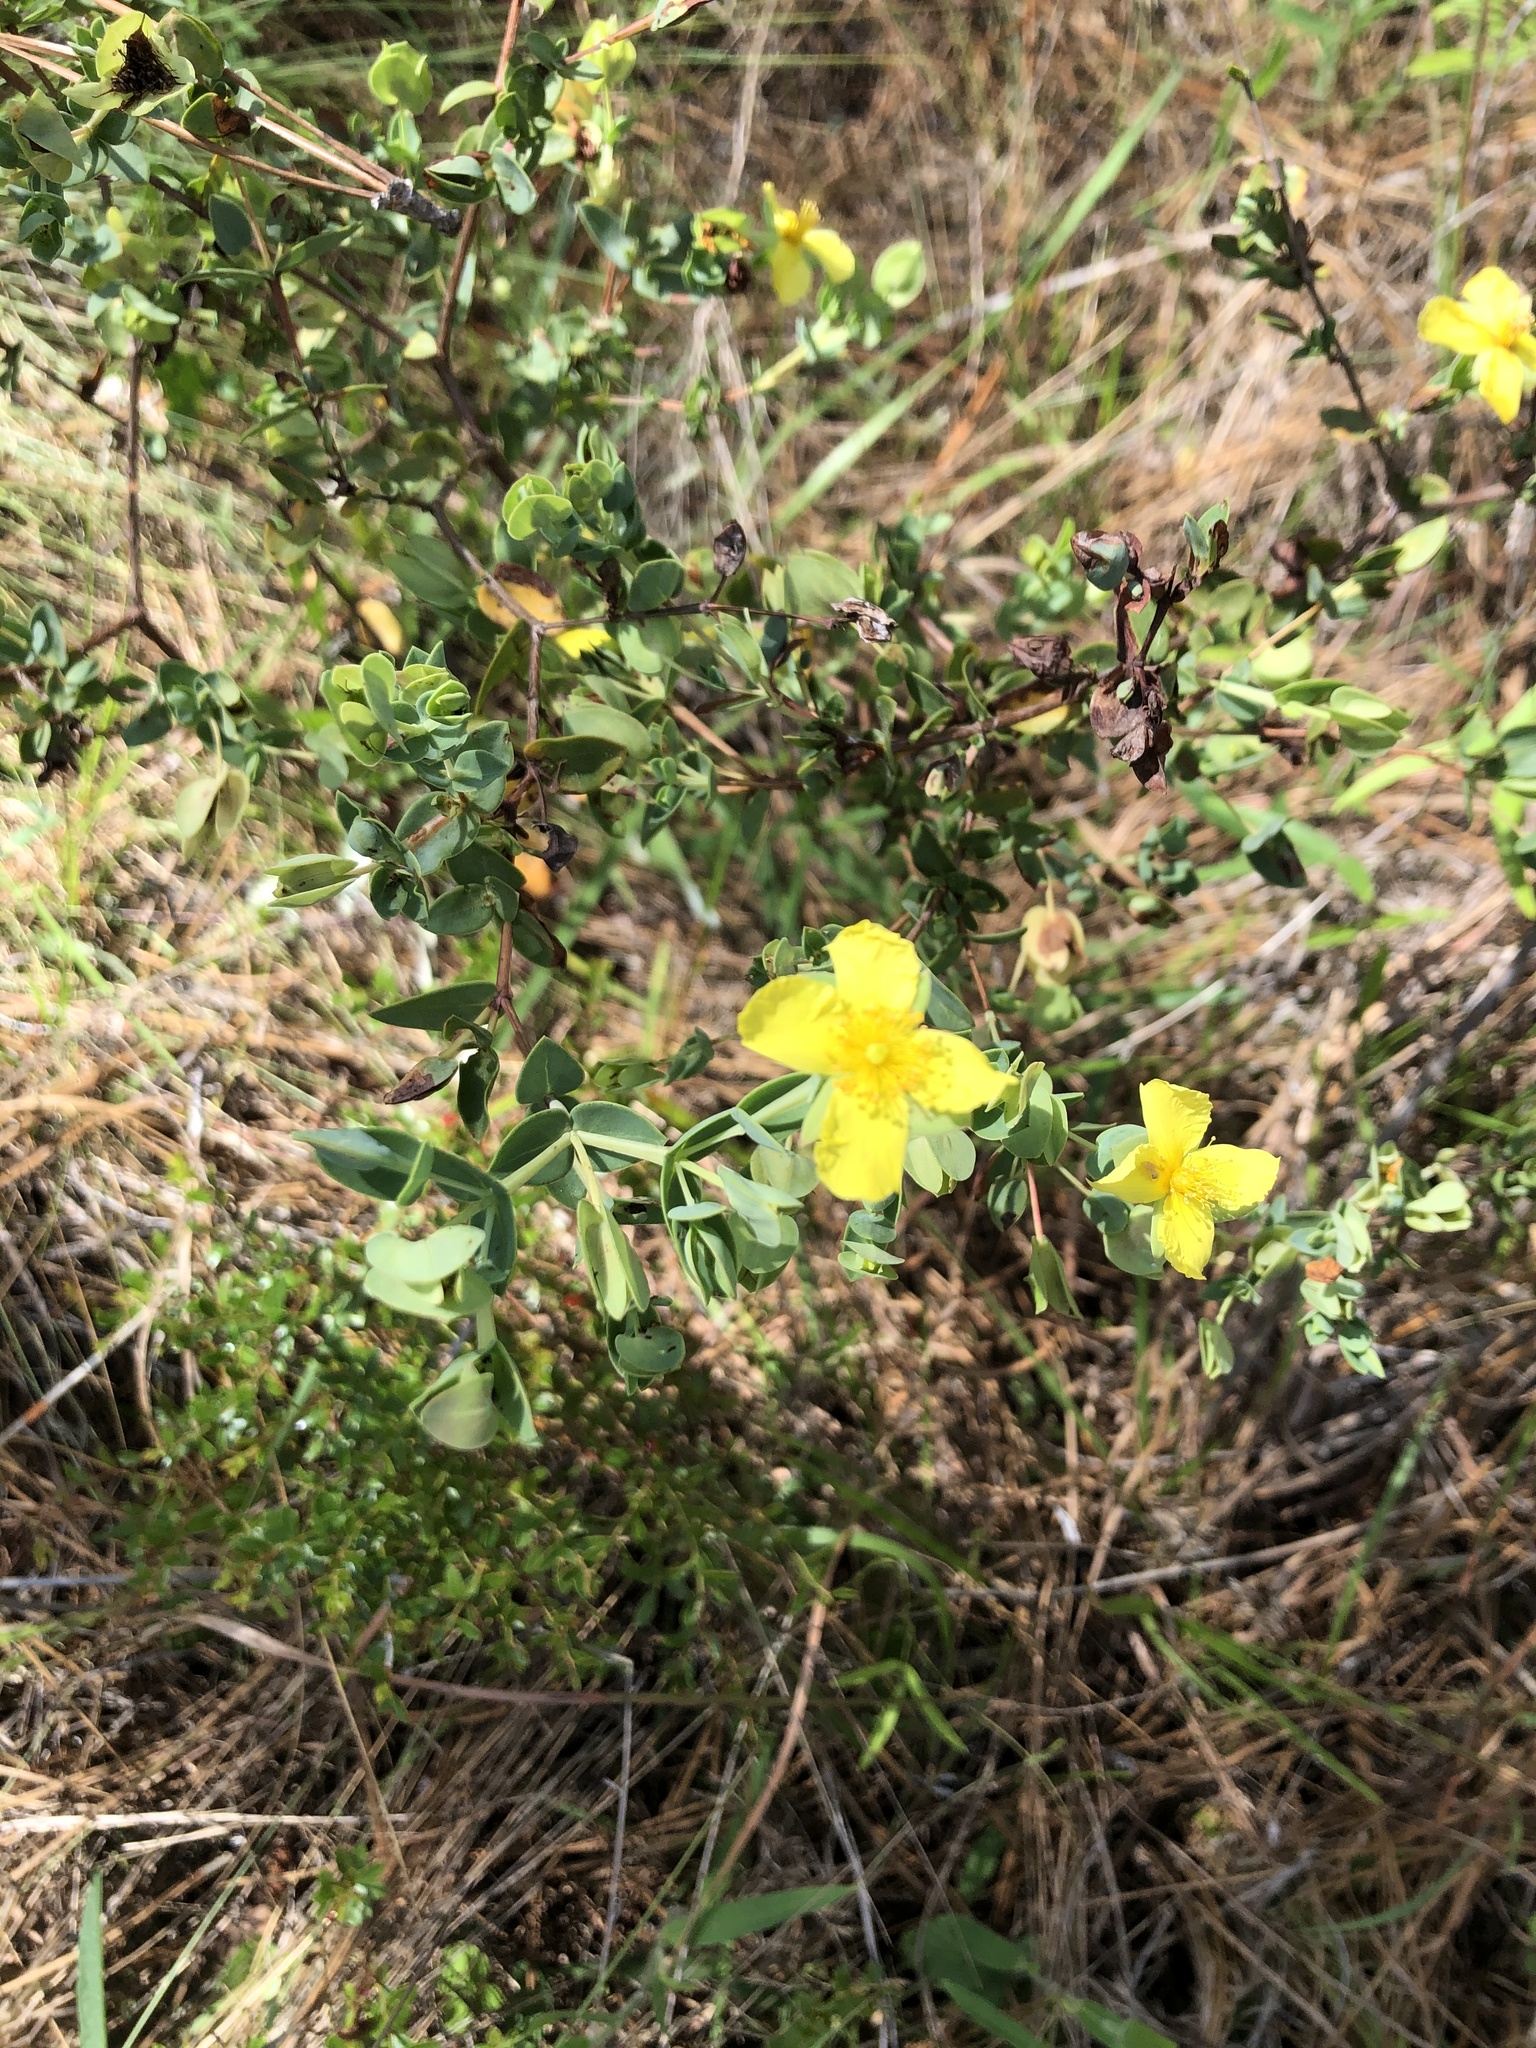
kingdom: Plantae
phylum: Tracheophyta
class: Magnoliopsida
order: Malpighiales
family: Hypericaceae
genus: Hypericum
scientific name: Hypericum tetrapetalum
